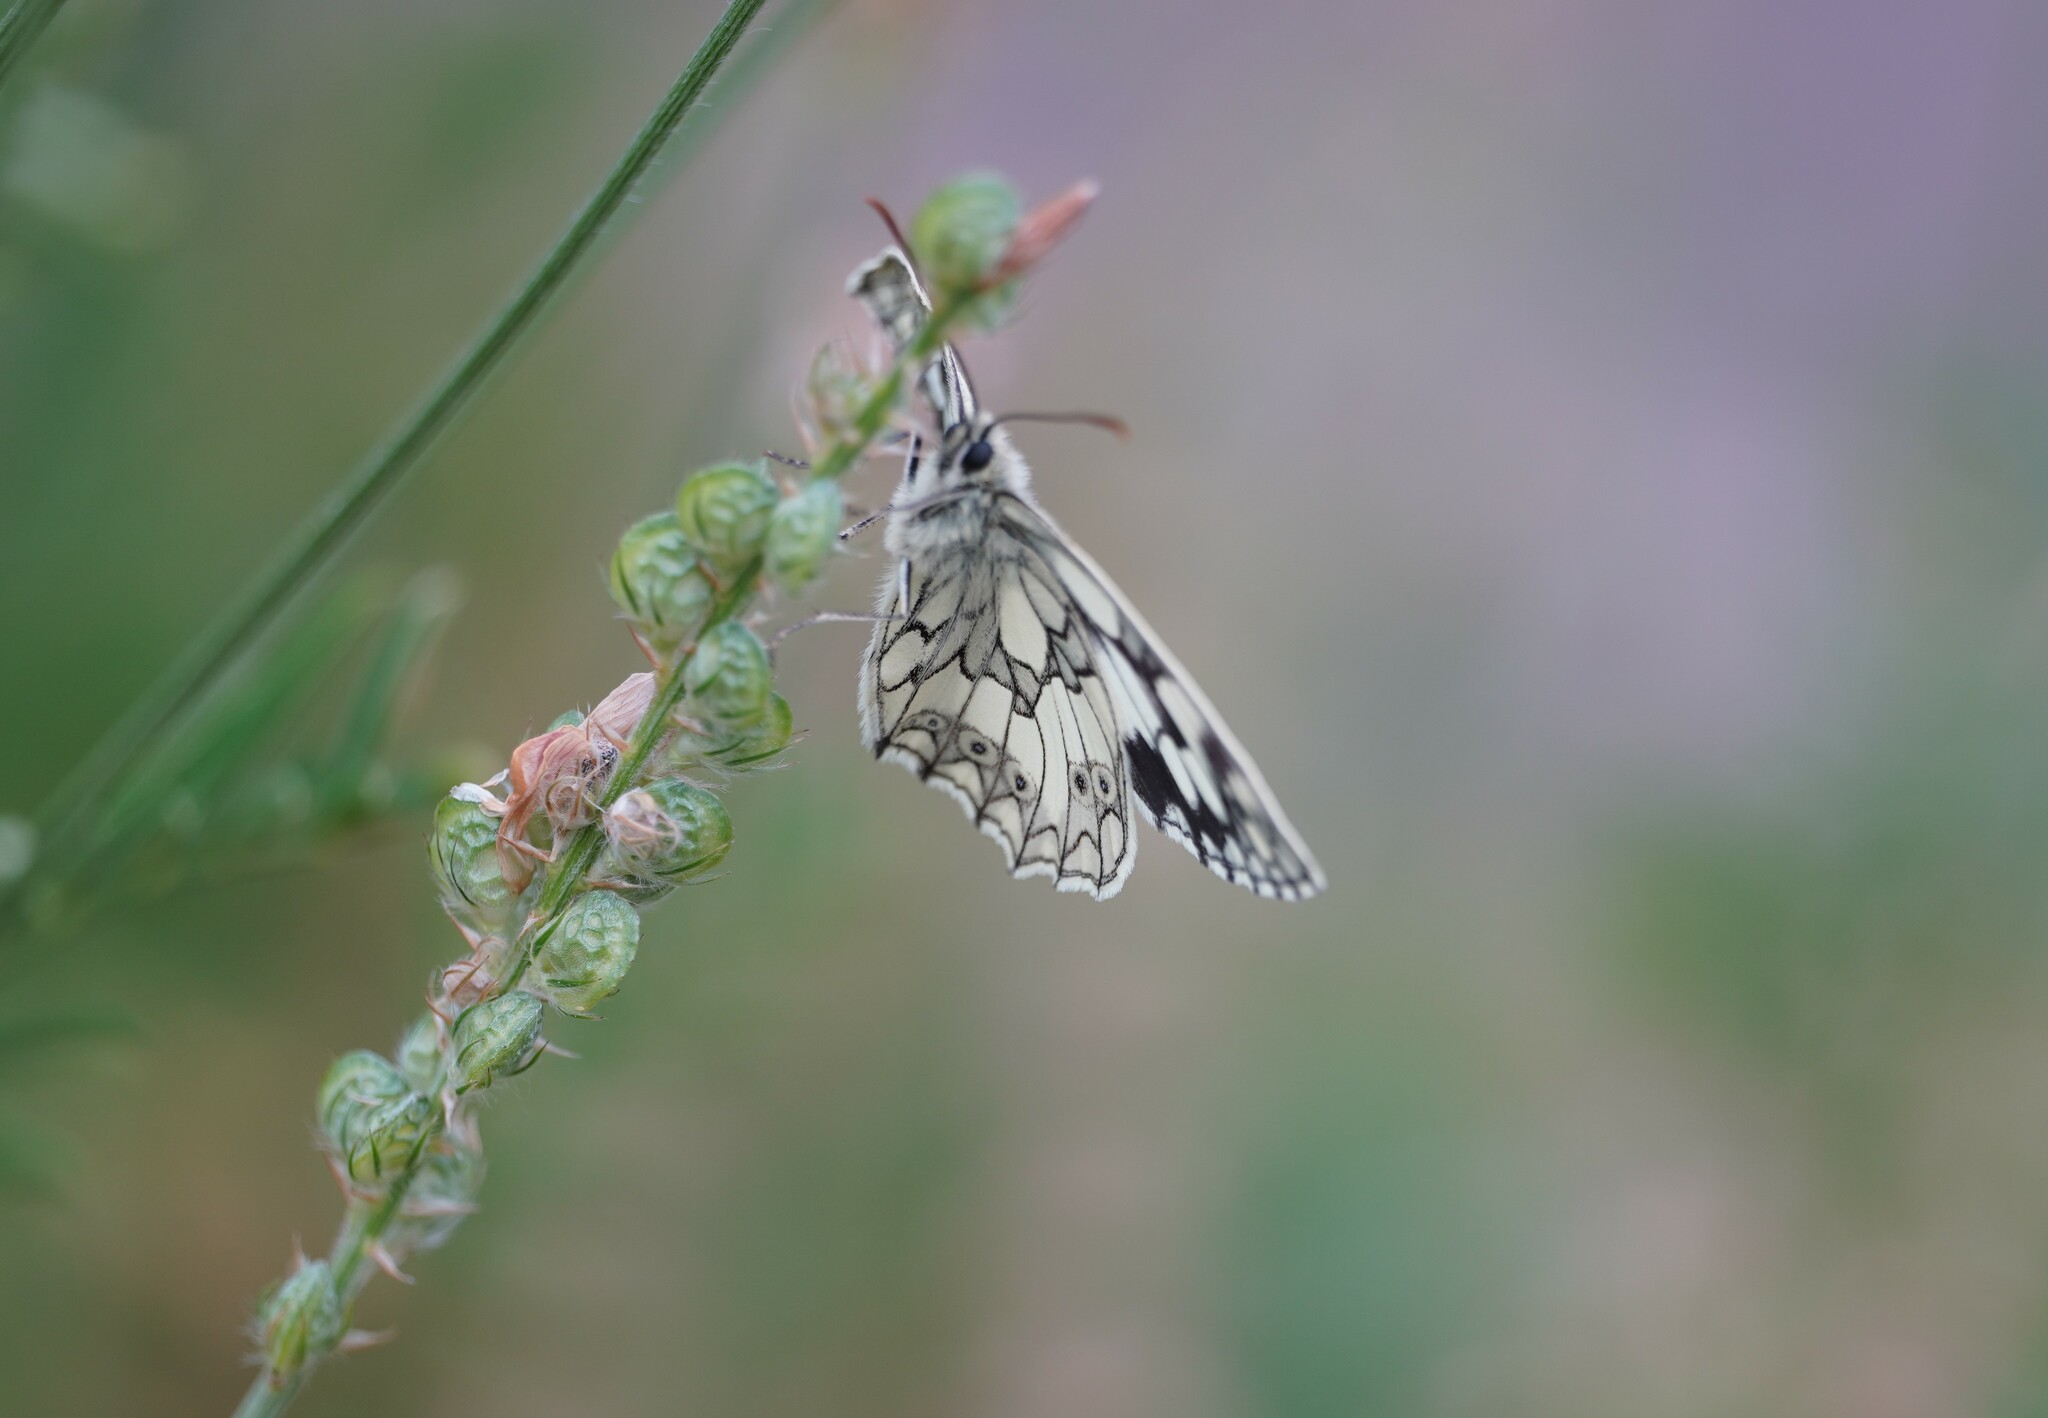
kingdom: Animalia
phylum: Arthropoda
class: Insecta
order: Lepidoptera
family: Nymphalidae
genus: Melanargia
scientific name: Melanargia galathea
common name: Marbled white
